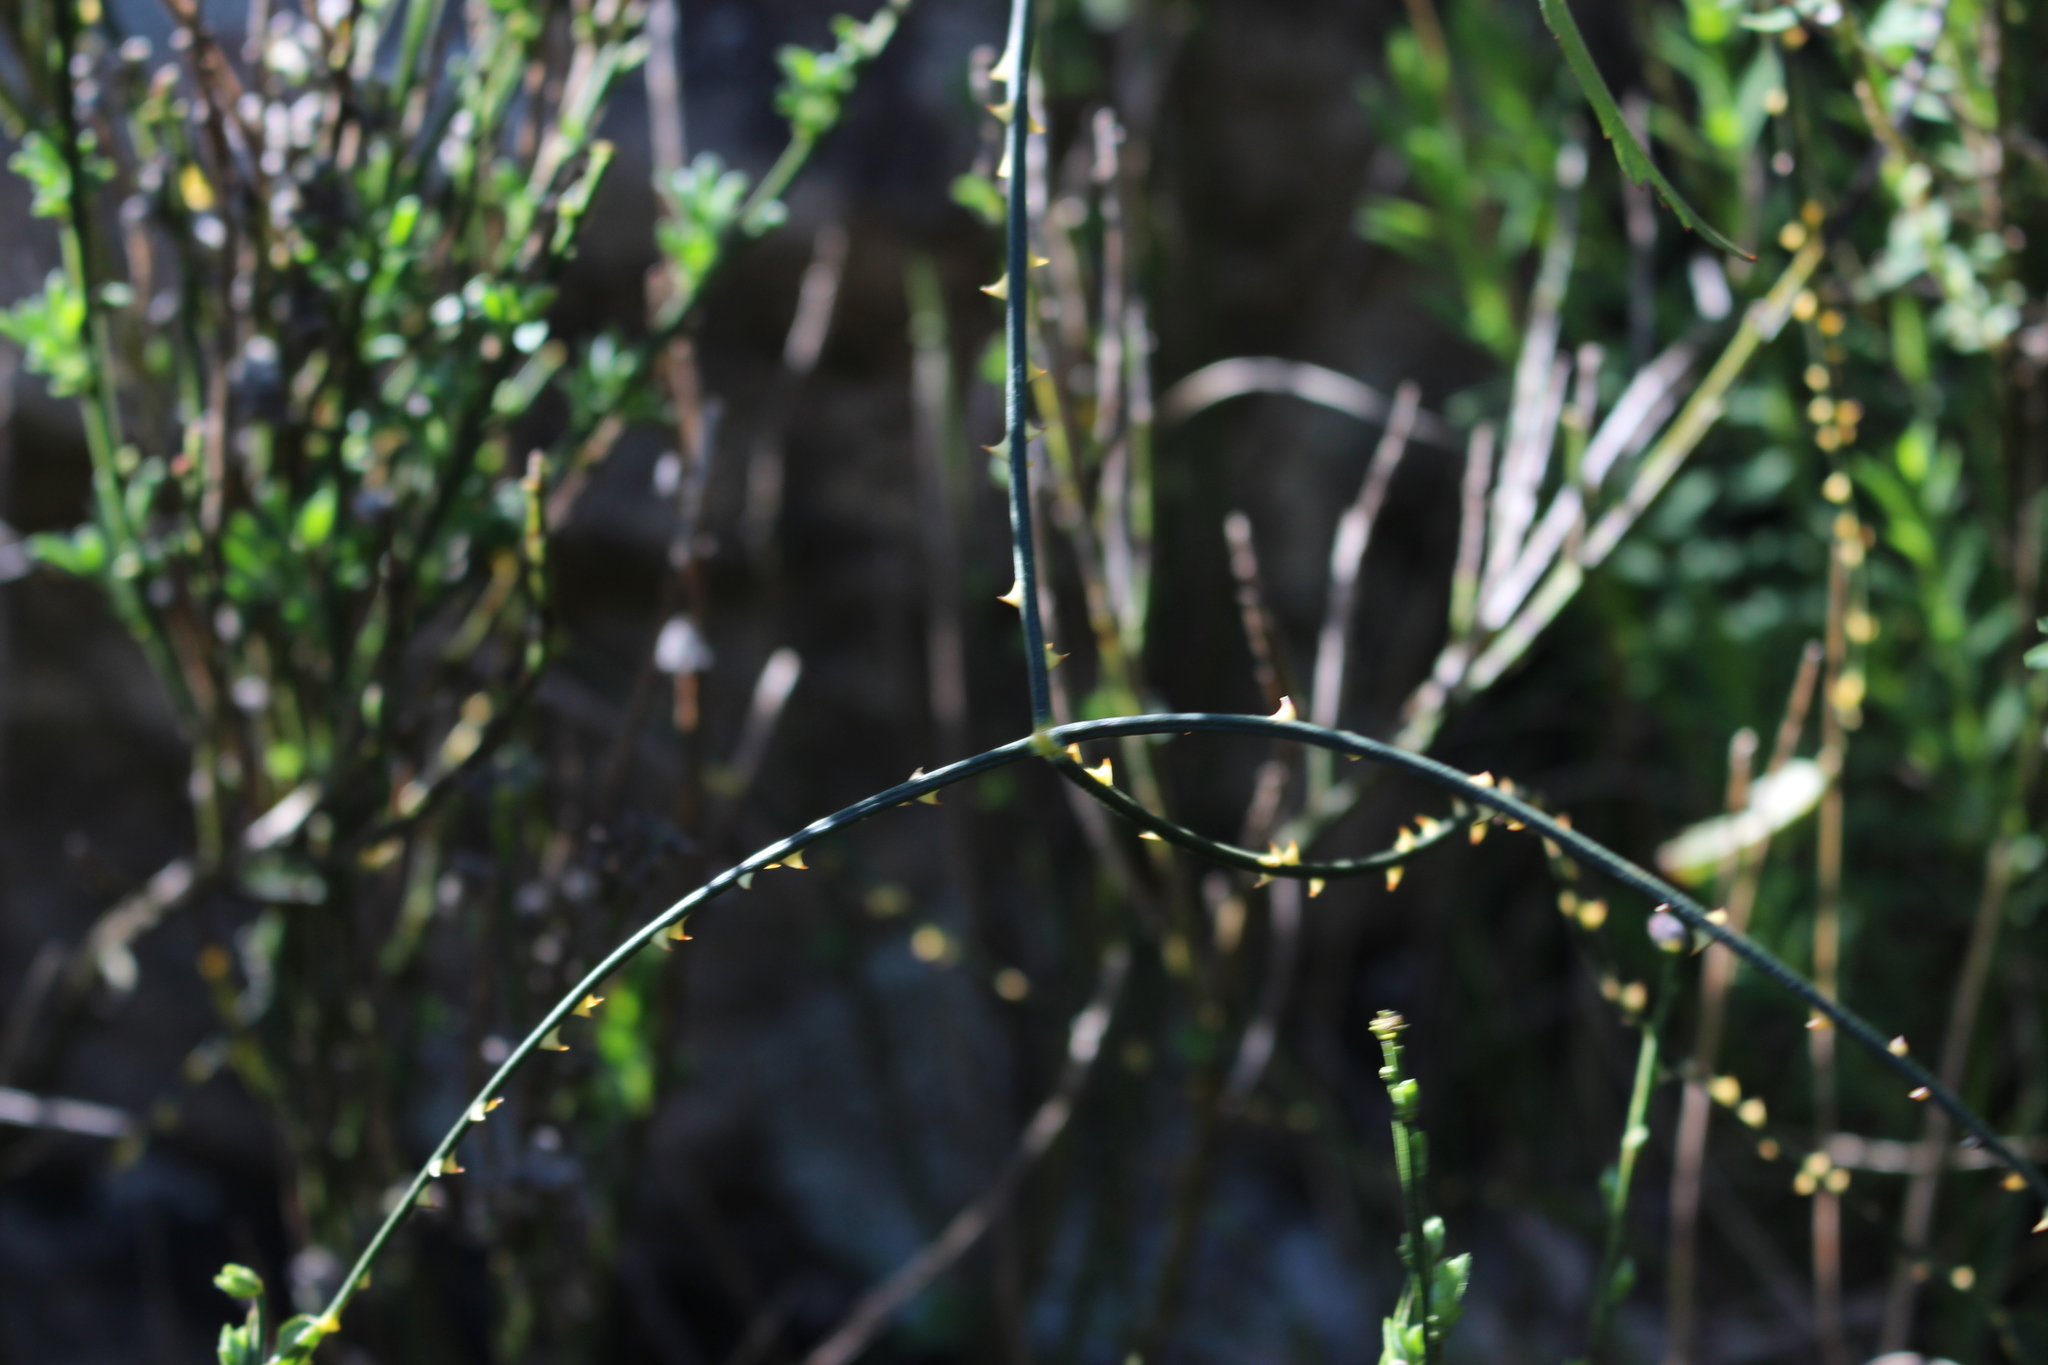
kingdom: Plantae
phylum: Tracheophyta
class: Magnoliopsida
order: Rosales
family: Rosaceae
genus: Rubus
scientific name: Rubus squarrosus
